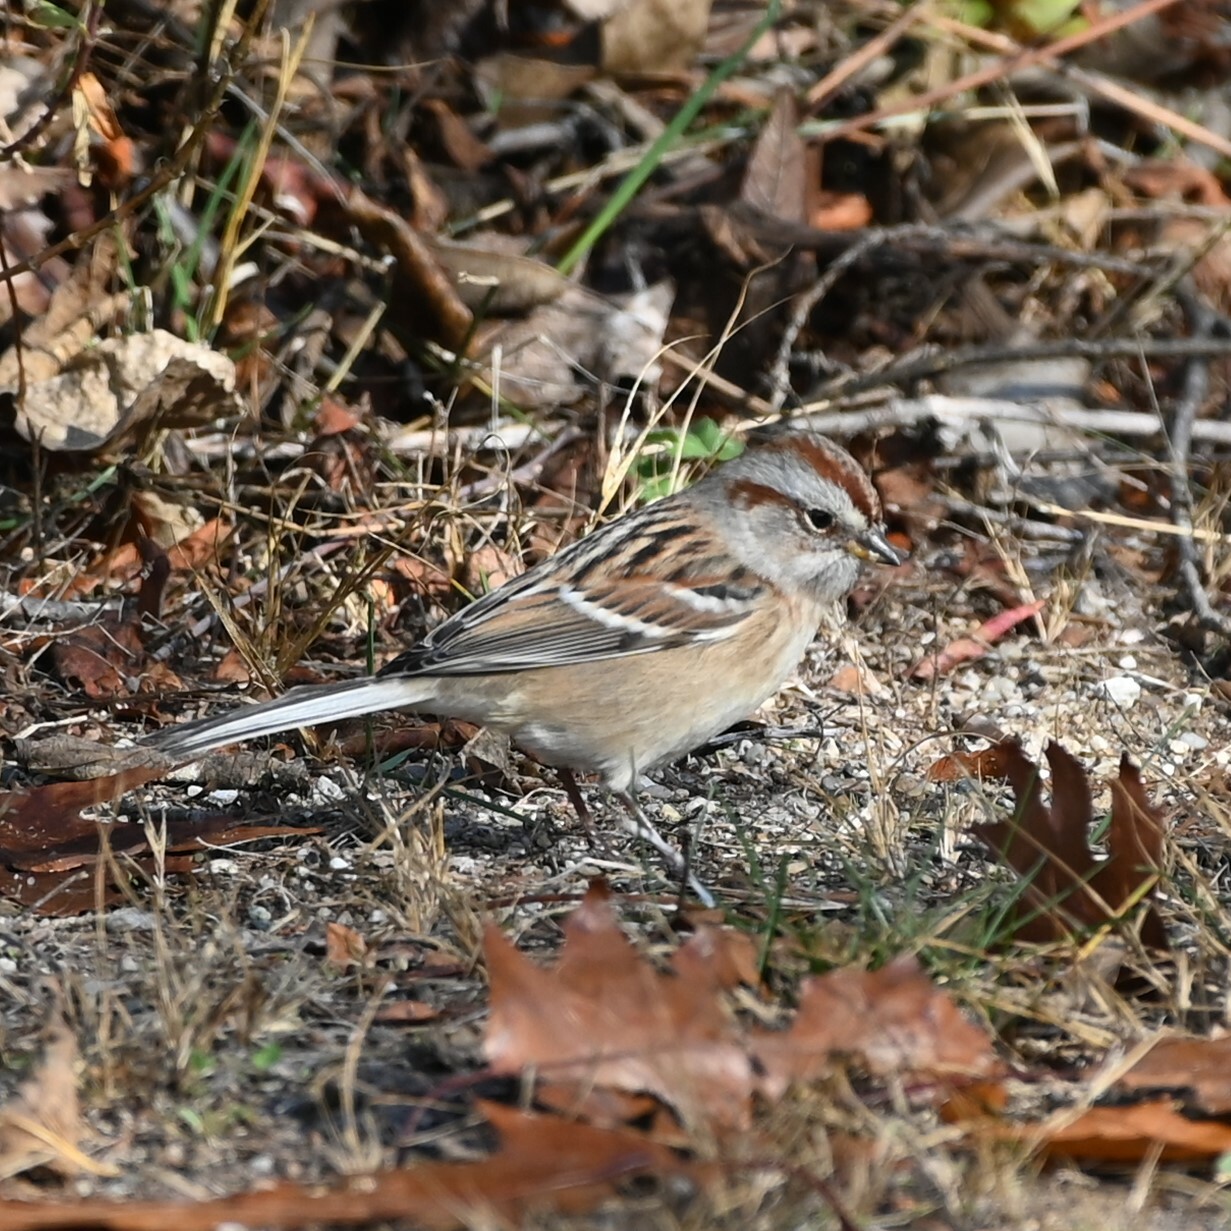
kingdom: Animalia
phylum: Chordata
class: Aves
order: Passeriformes
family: Passerellidae
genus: Spizelloides
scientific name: Spizelloides arborea
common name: American tree sparrow
